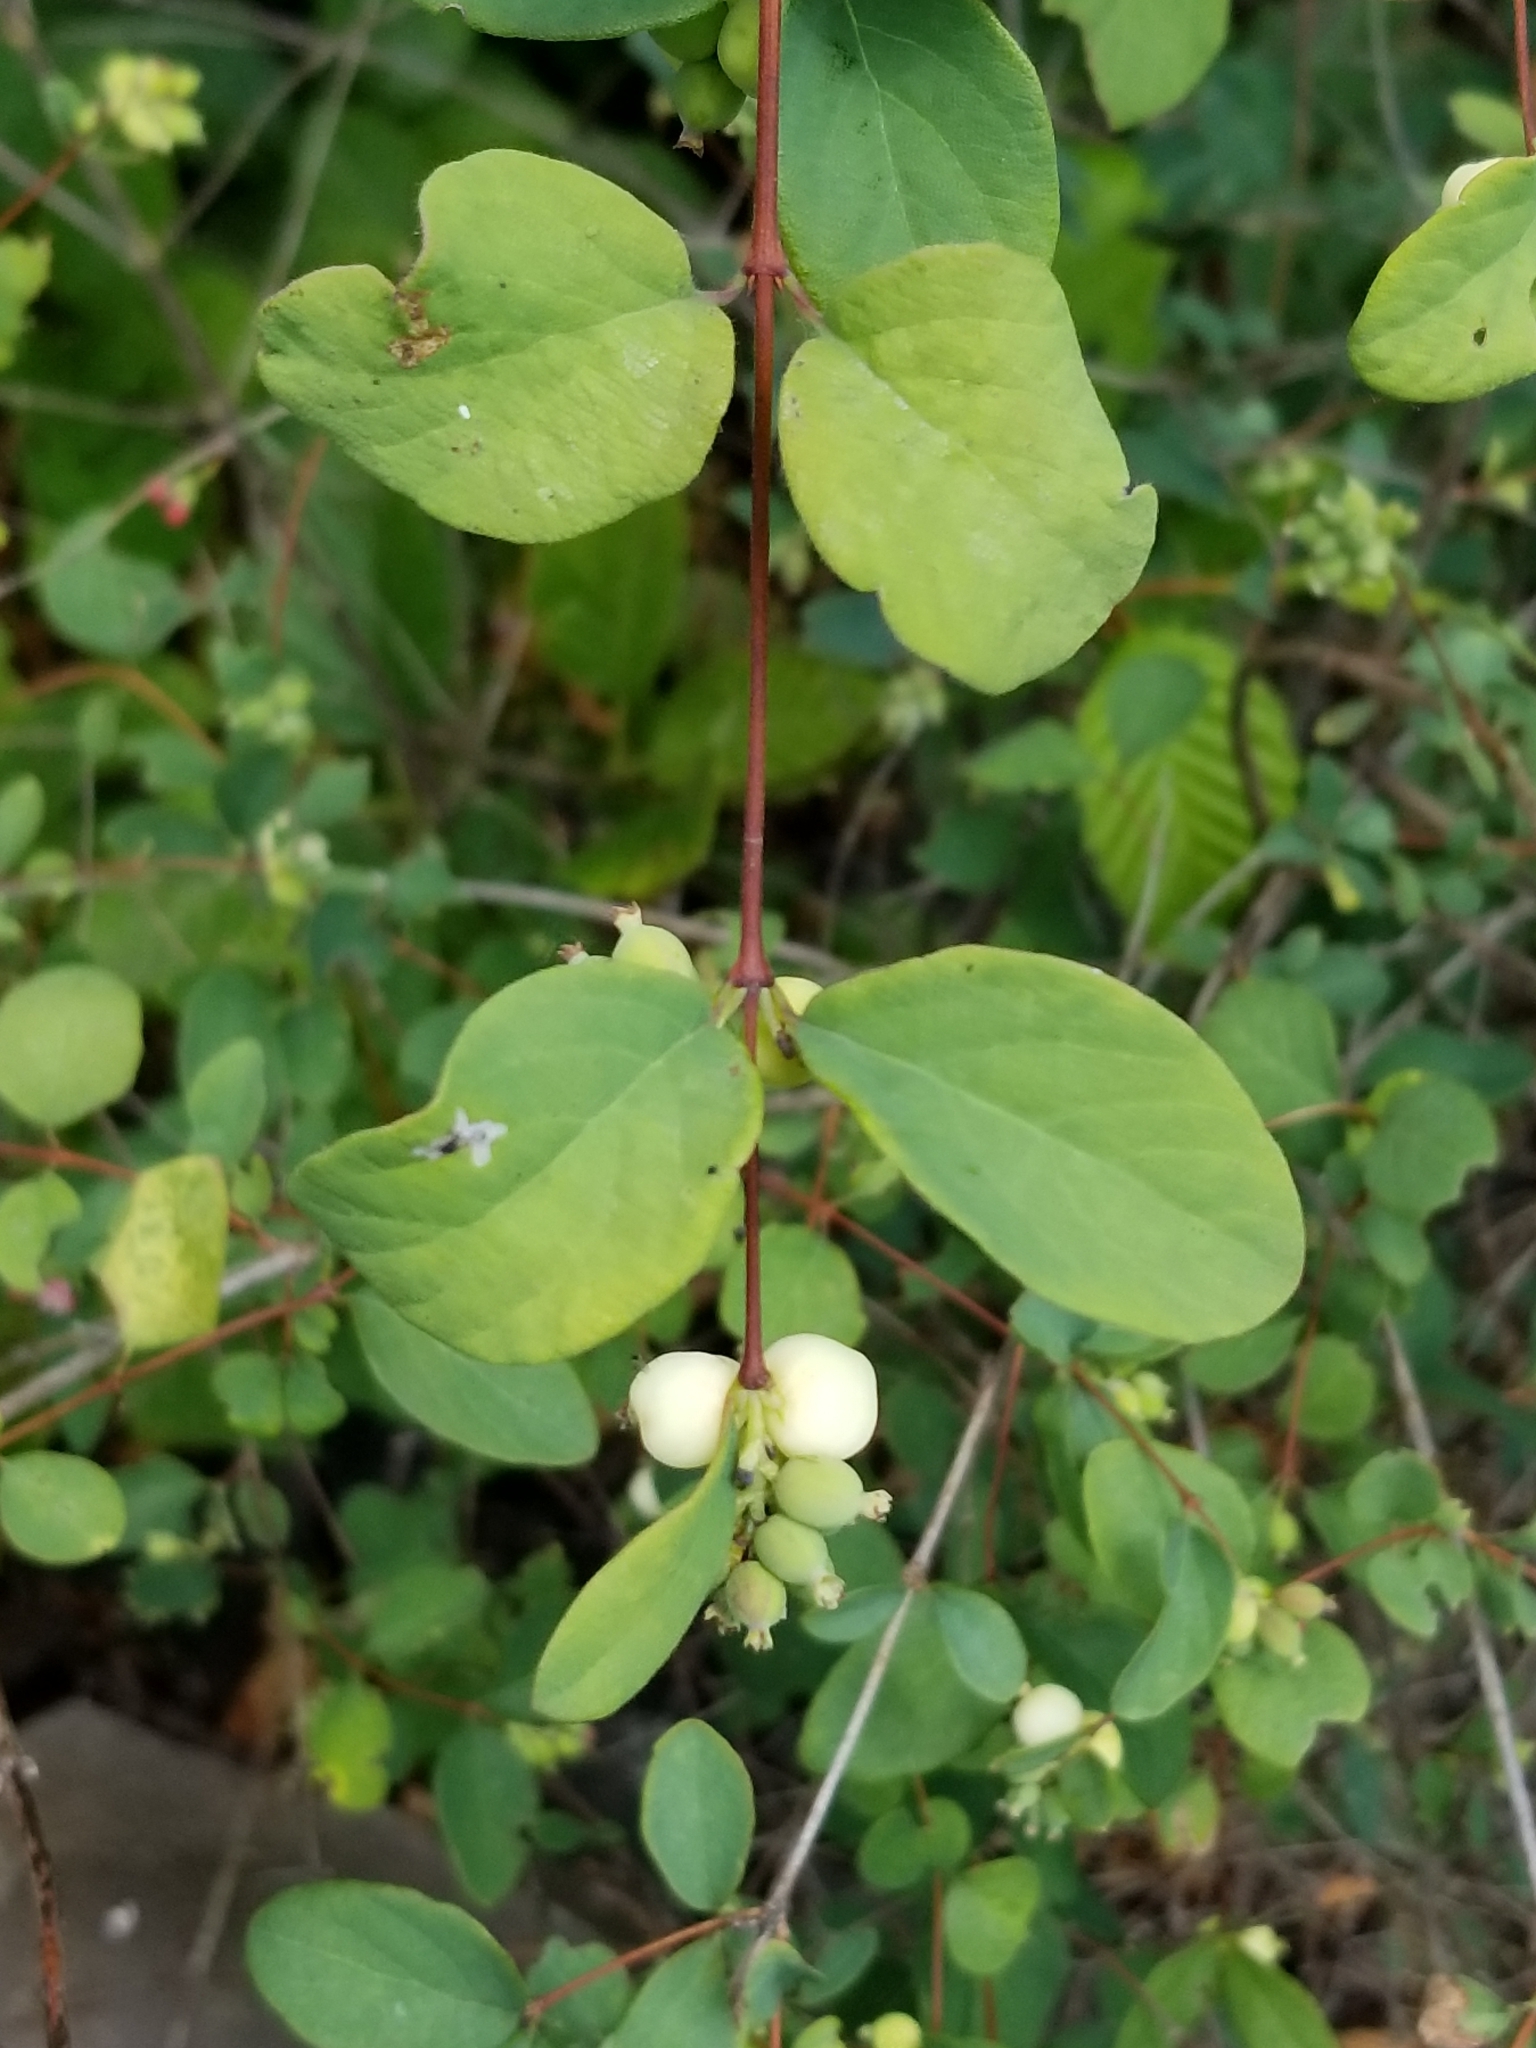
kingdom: Plantae
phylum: Tracheophyta
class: Magnoliopsida
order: Dipsacales
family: Caprifoliaceae
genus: Symphoricarpos
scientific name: Symphoricarpos albus
